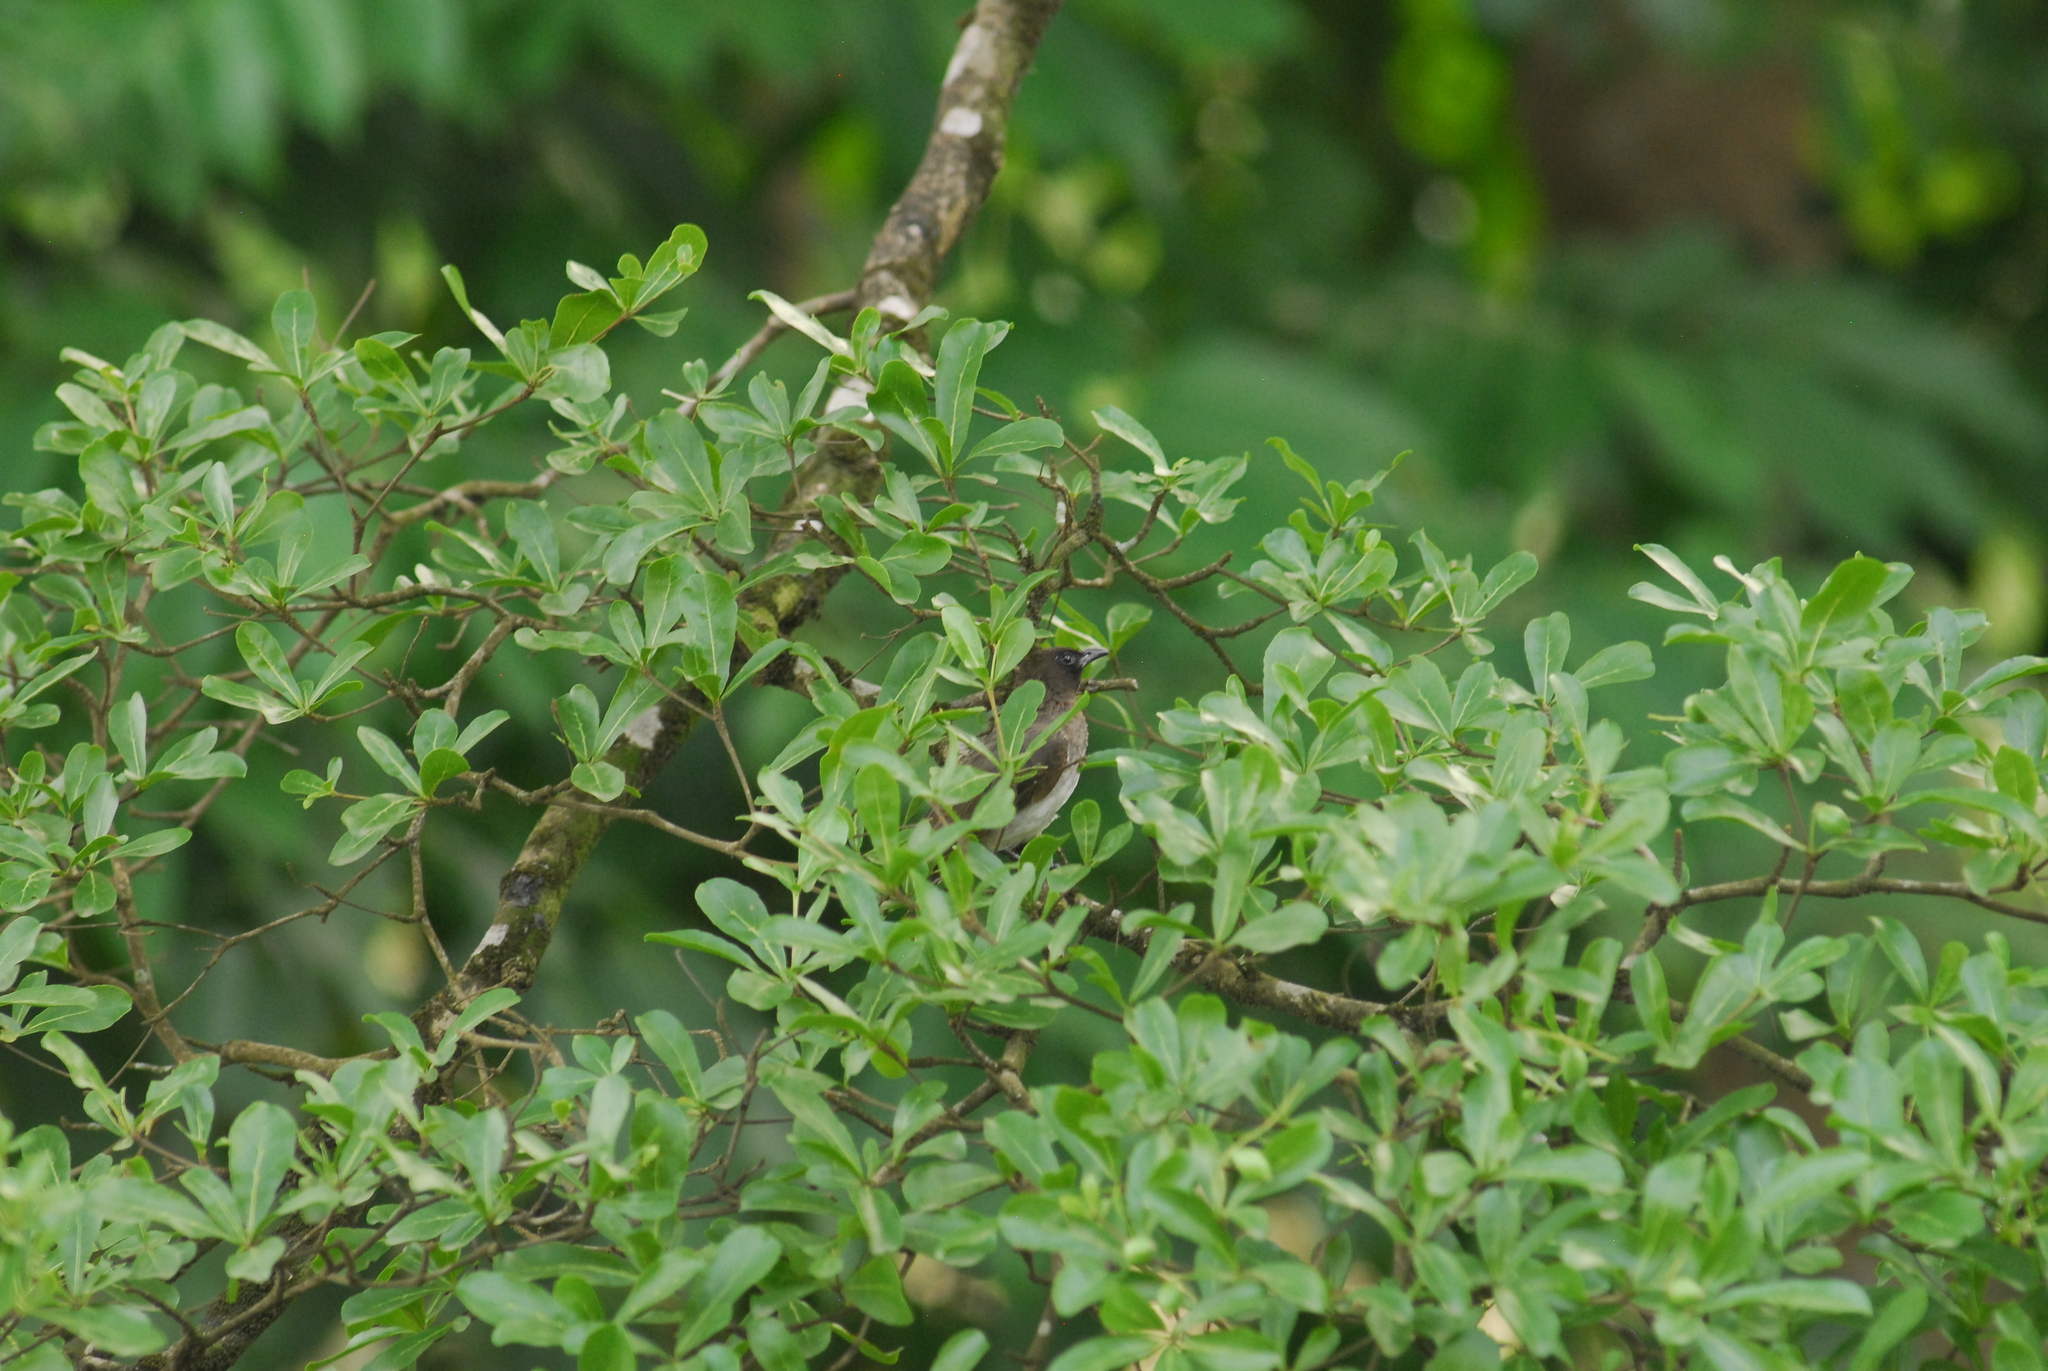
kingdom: Animalia
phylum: Chordata
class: Aves
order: Passeriformes
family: Pycnonotidae
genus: Pycnonotus
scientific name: Pycnonotus barbatus
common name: Common bulbul
